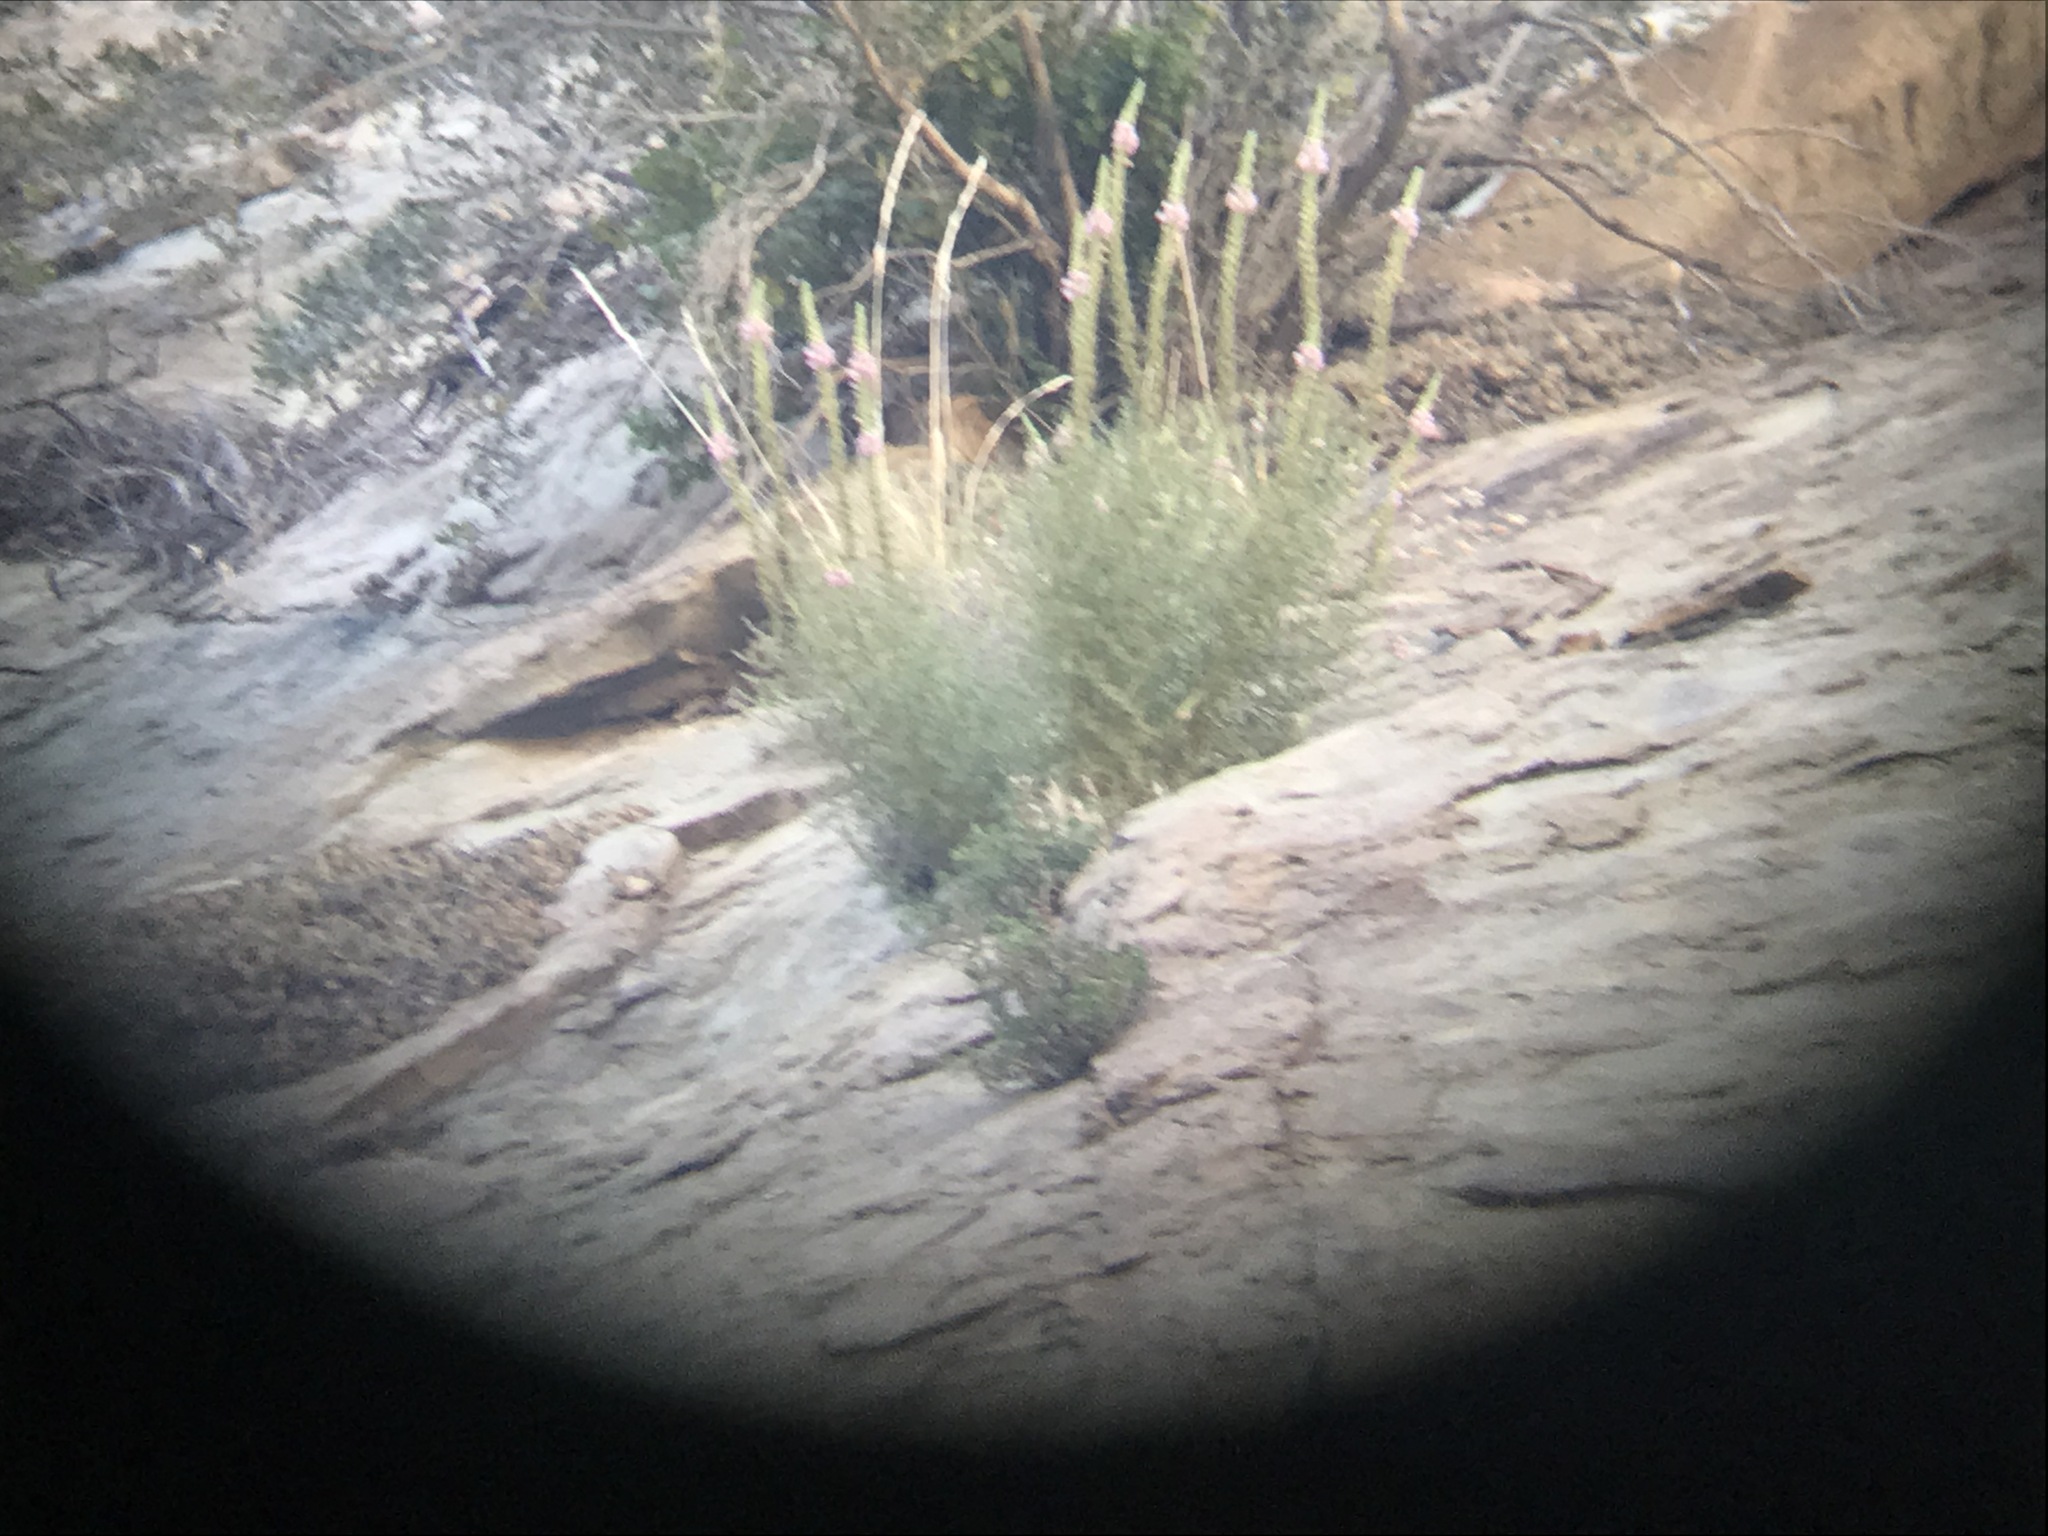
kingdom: Plantae
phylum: Tracheophyta
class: Magnoliopsida
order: Lamiales
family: Plantaginaceae
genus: Sairocarpus
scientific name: Sairocarpus multiflorus
